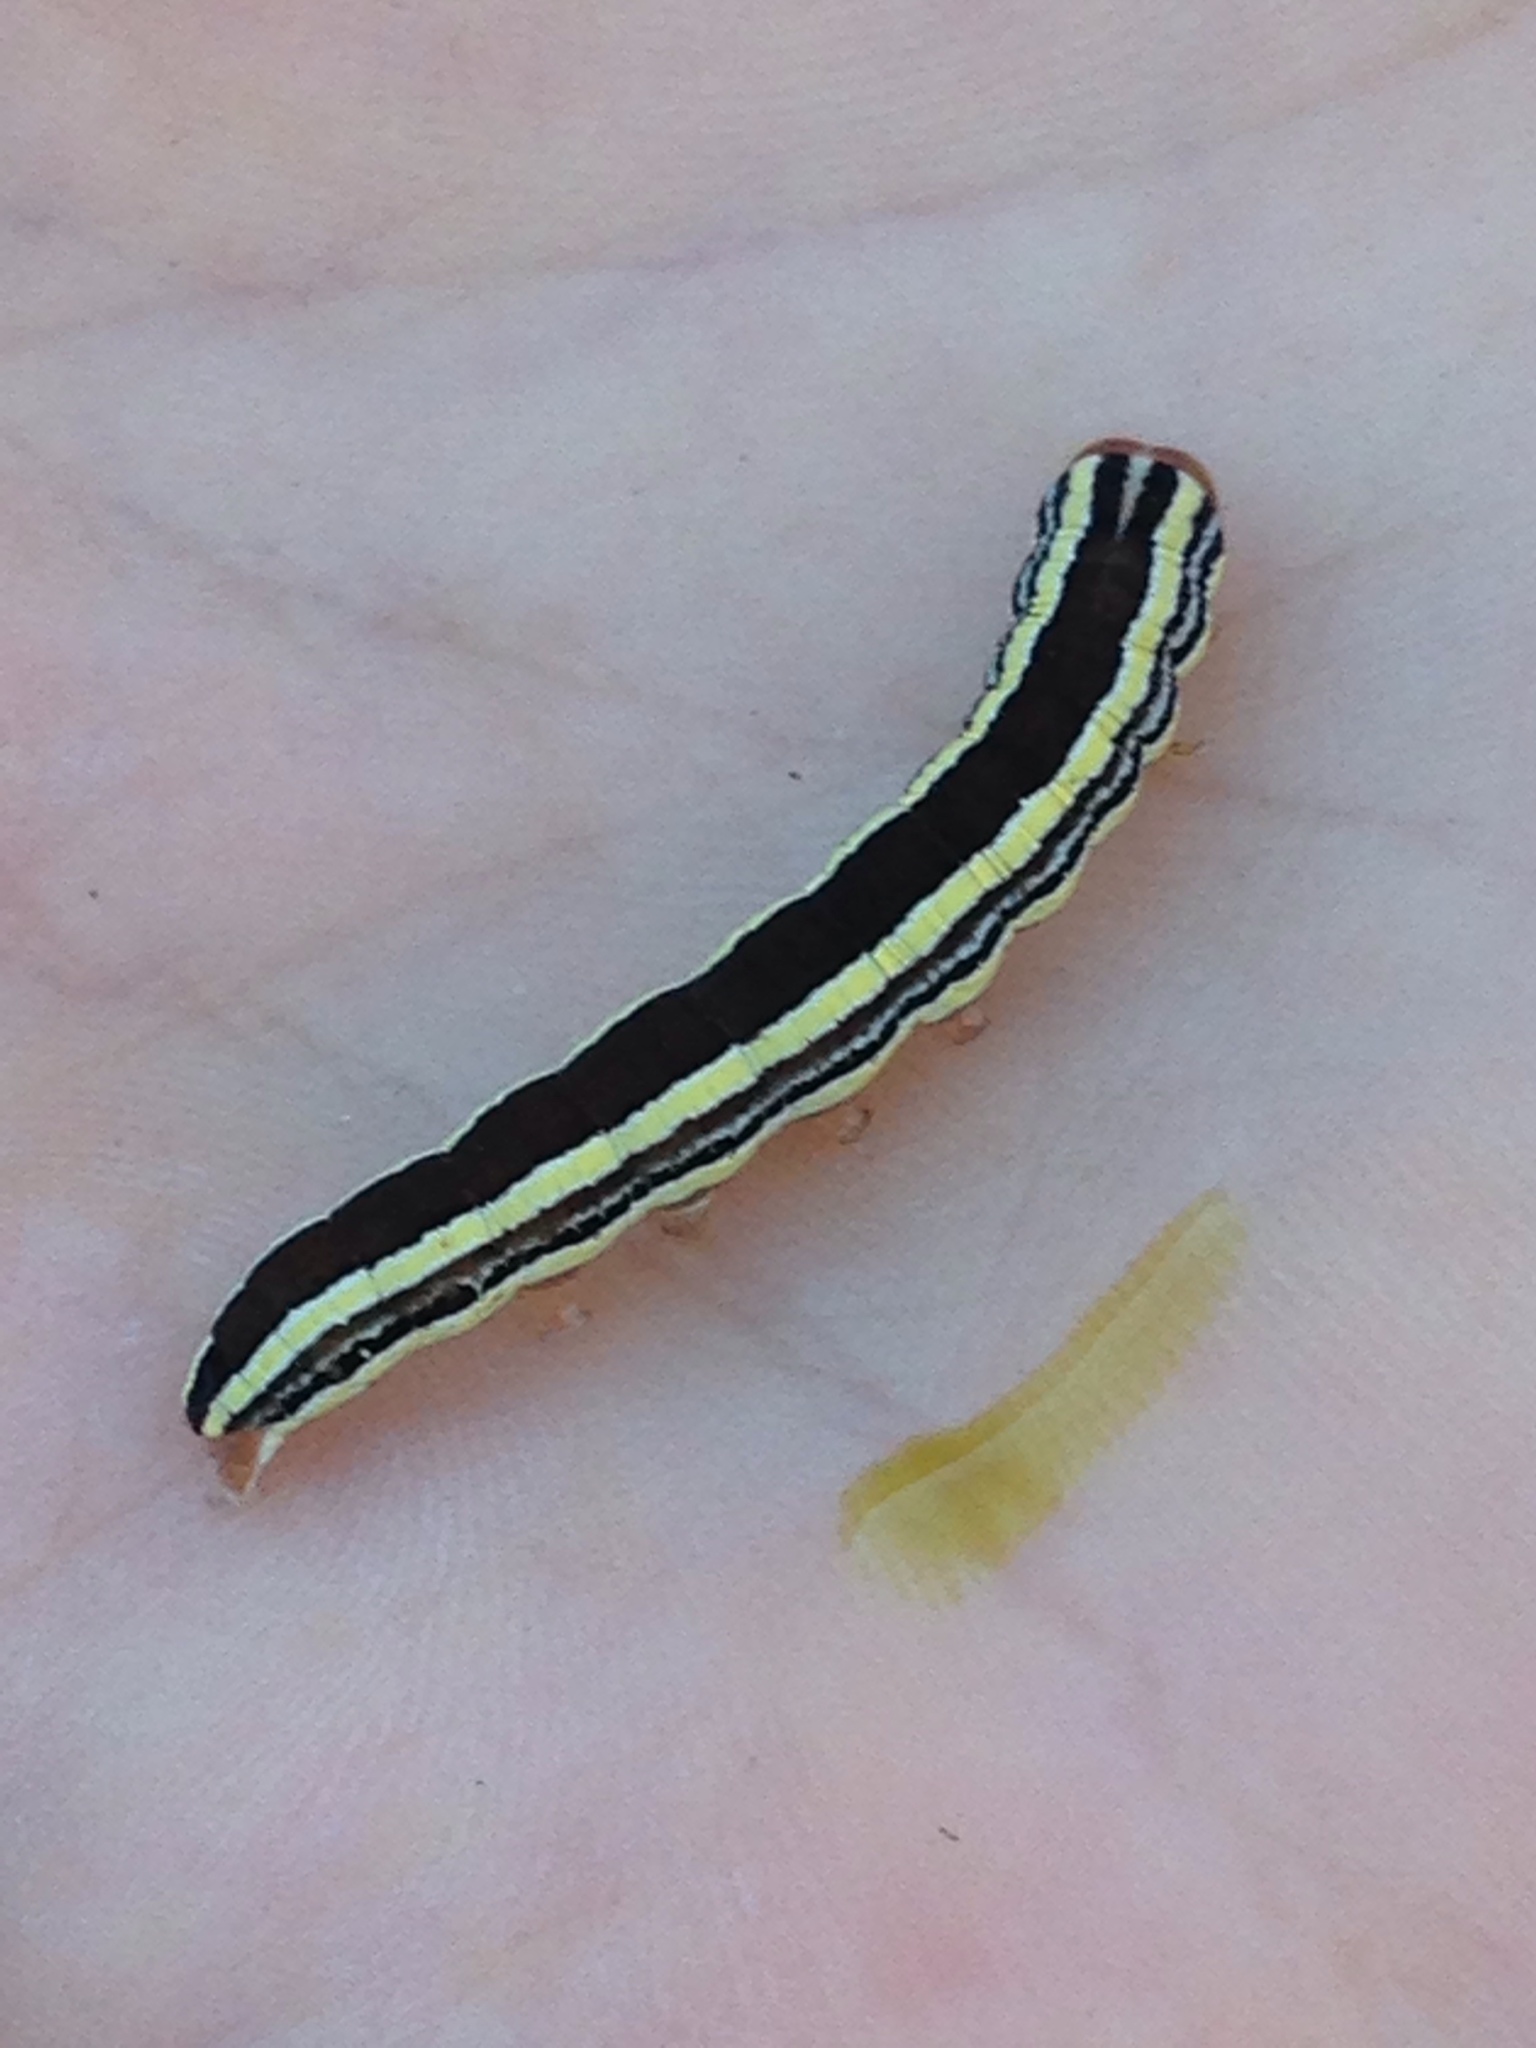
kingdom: Animalia
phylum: Arthropoda
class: Insecta
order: Lepidoptera
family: Noctuidae
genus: Trichordestra
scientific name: Trichordestra legitima
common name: Striped garden caterpillar
